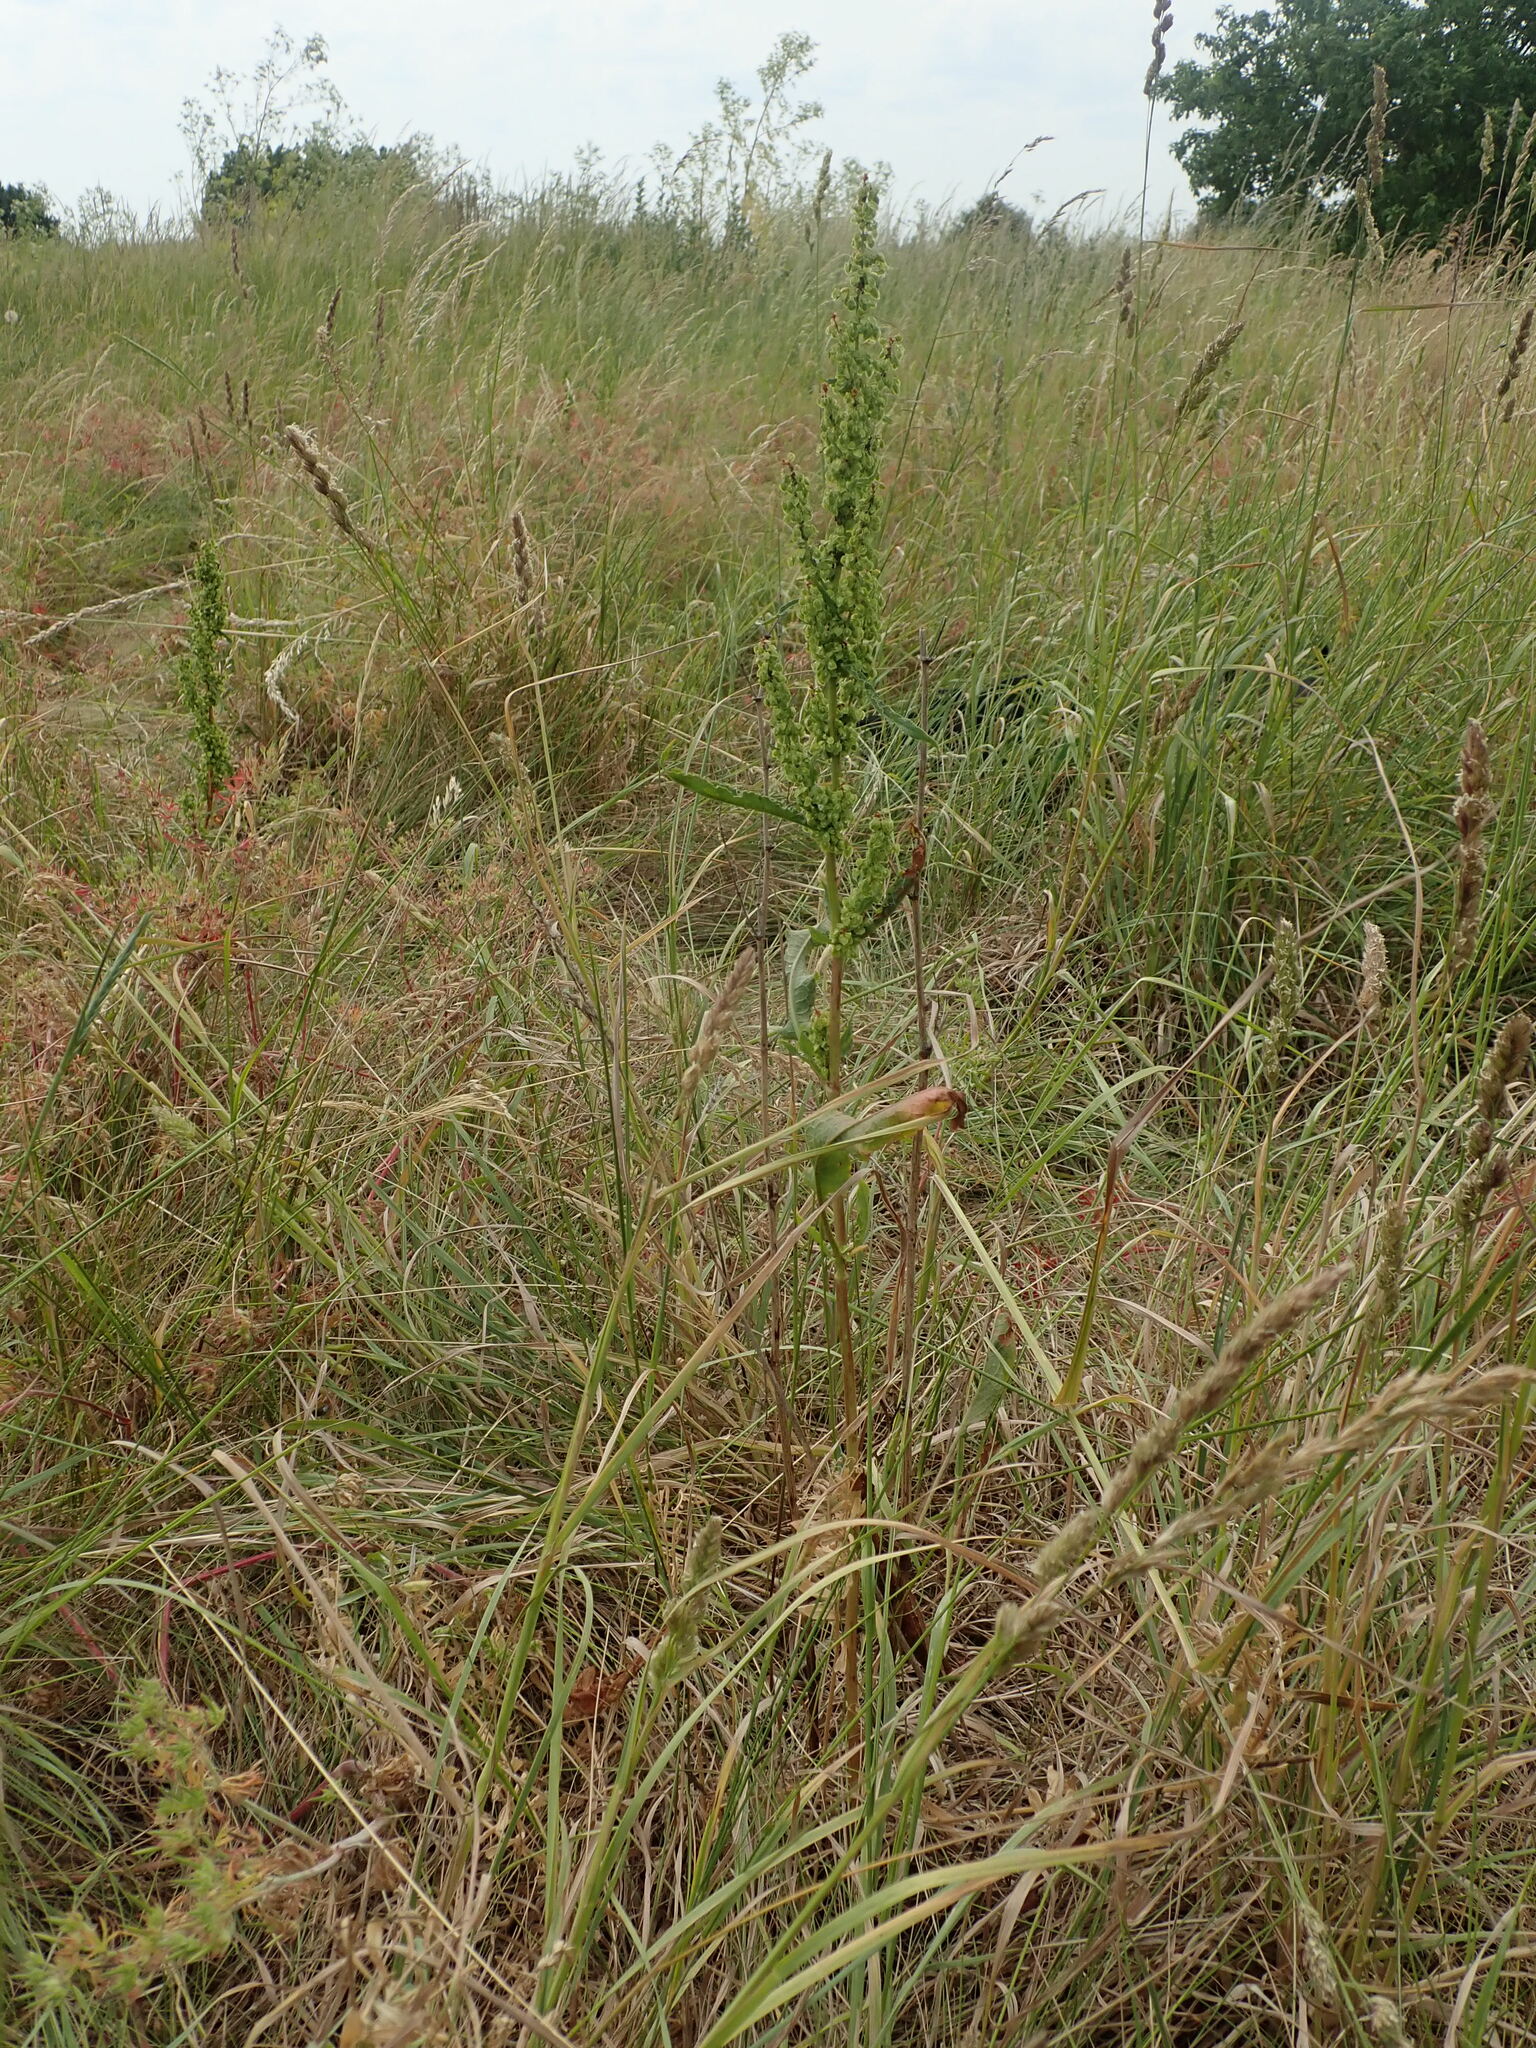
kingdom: Plantae
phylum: Tracheophyta
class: Magnoliopsida
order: Caryophyllales
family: Polygonaceae
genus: Rumex
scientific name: Rumex crispus
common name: Curled dock
